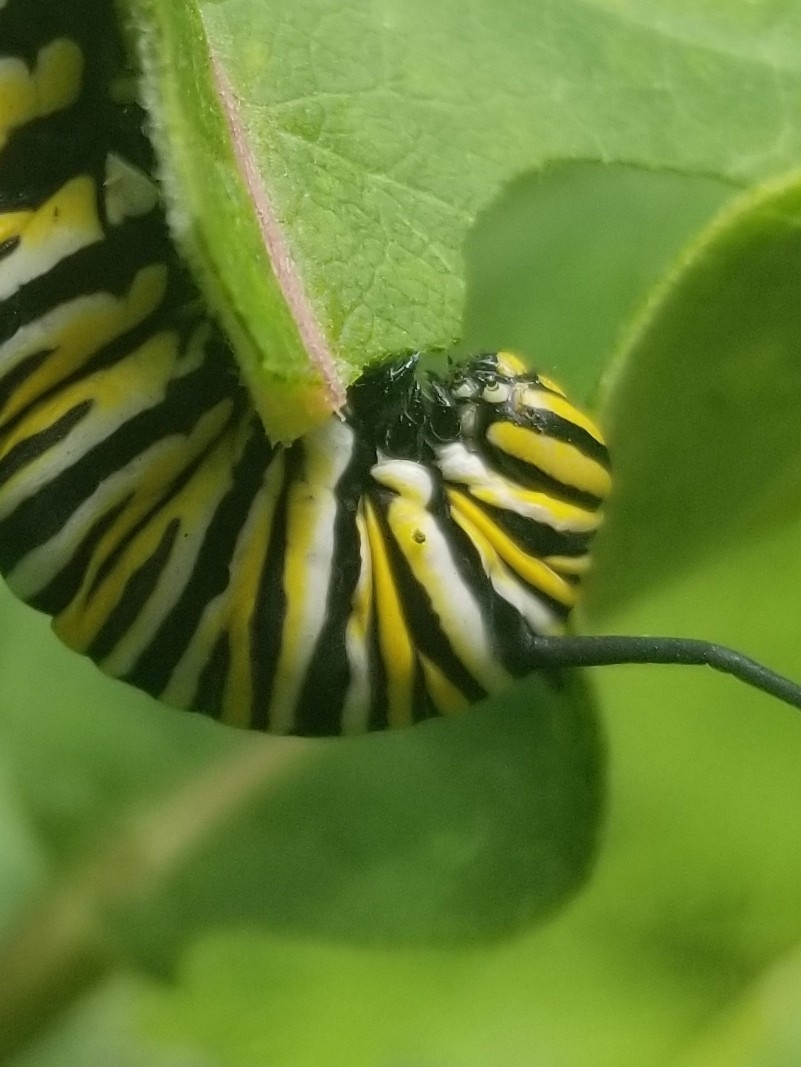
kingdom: Animalia
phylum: Arthropoda
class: Insecta
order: Lepidoptera
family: Nymphalidae
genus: Danaus
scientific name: Danaus plexippus
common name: Monarch
